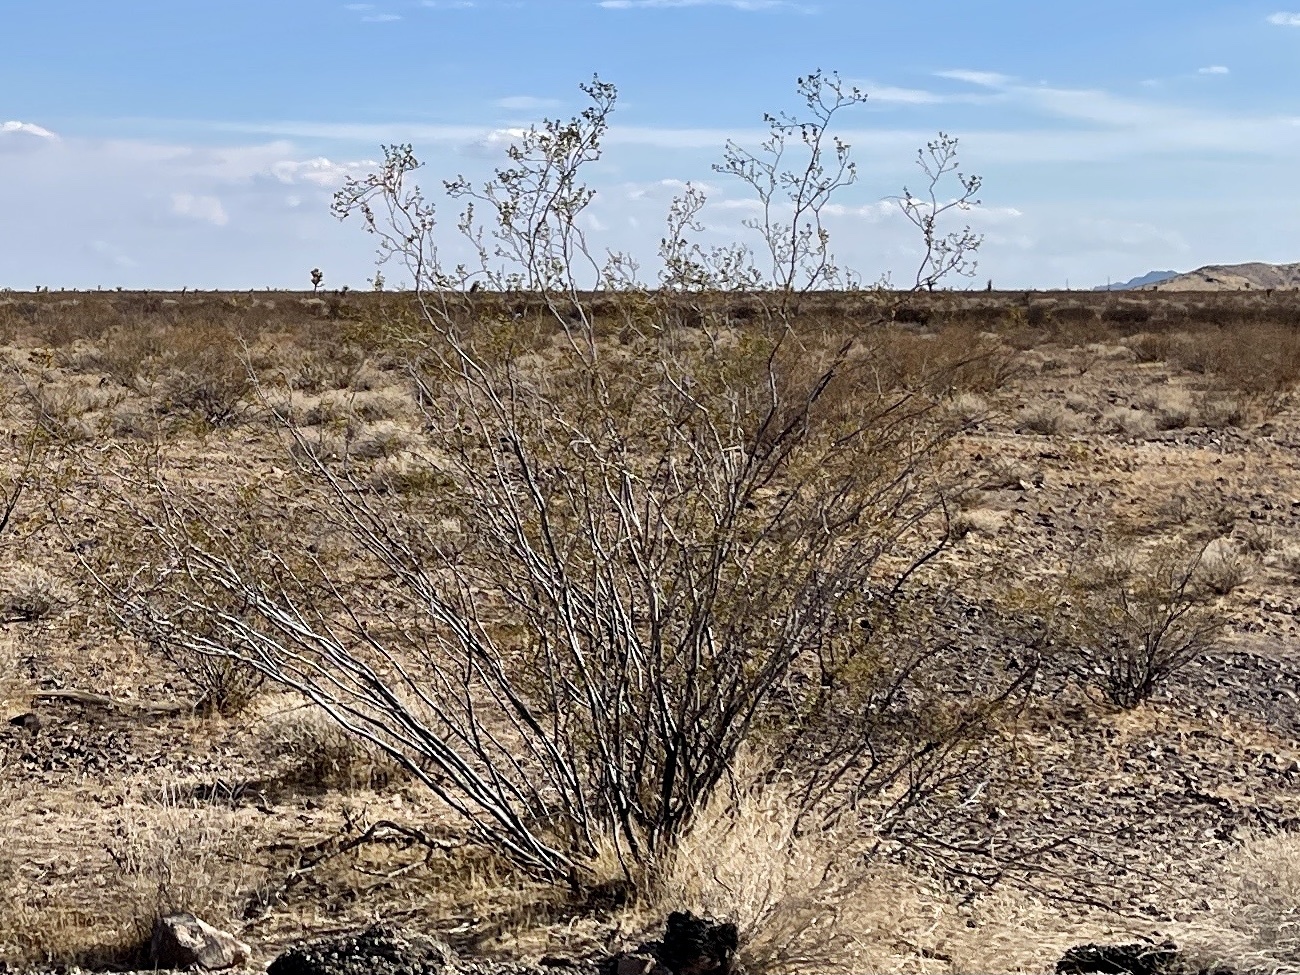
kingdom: Plantae
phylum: Tracheophyta
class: Magnoliopsida
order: Zygophyllales
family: Zygophyllaceae
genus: Larrea
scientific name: Larrea tridentata
